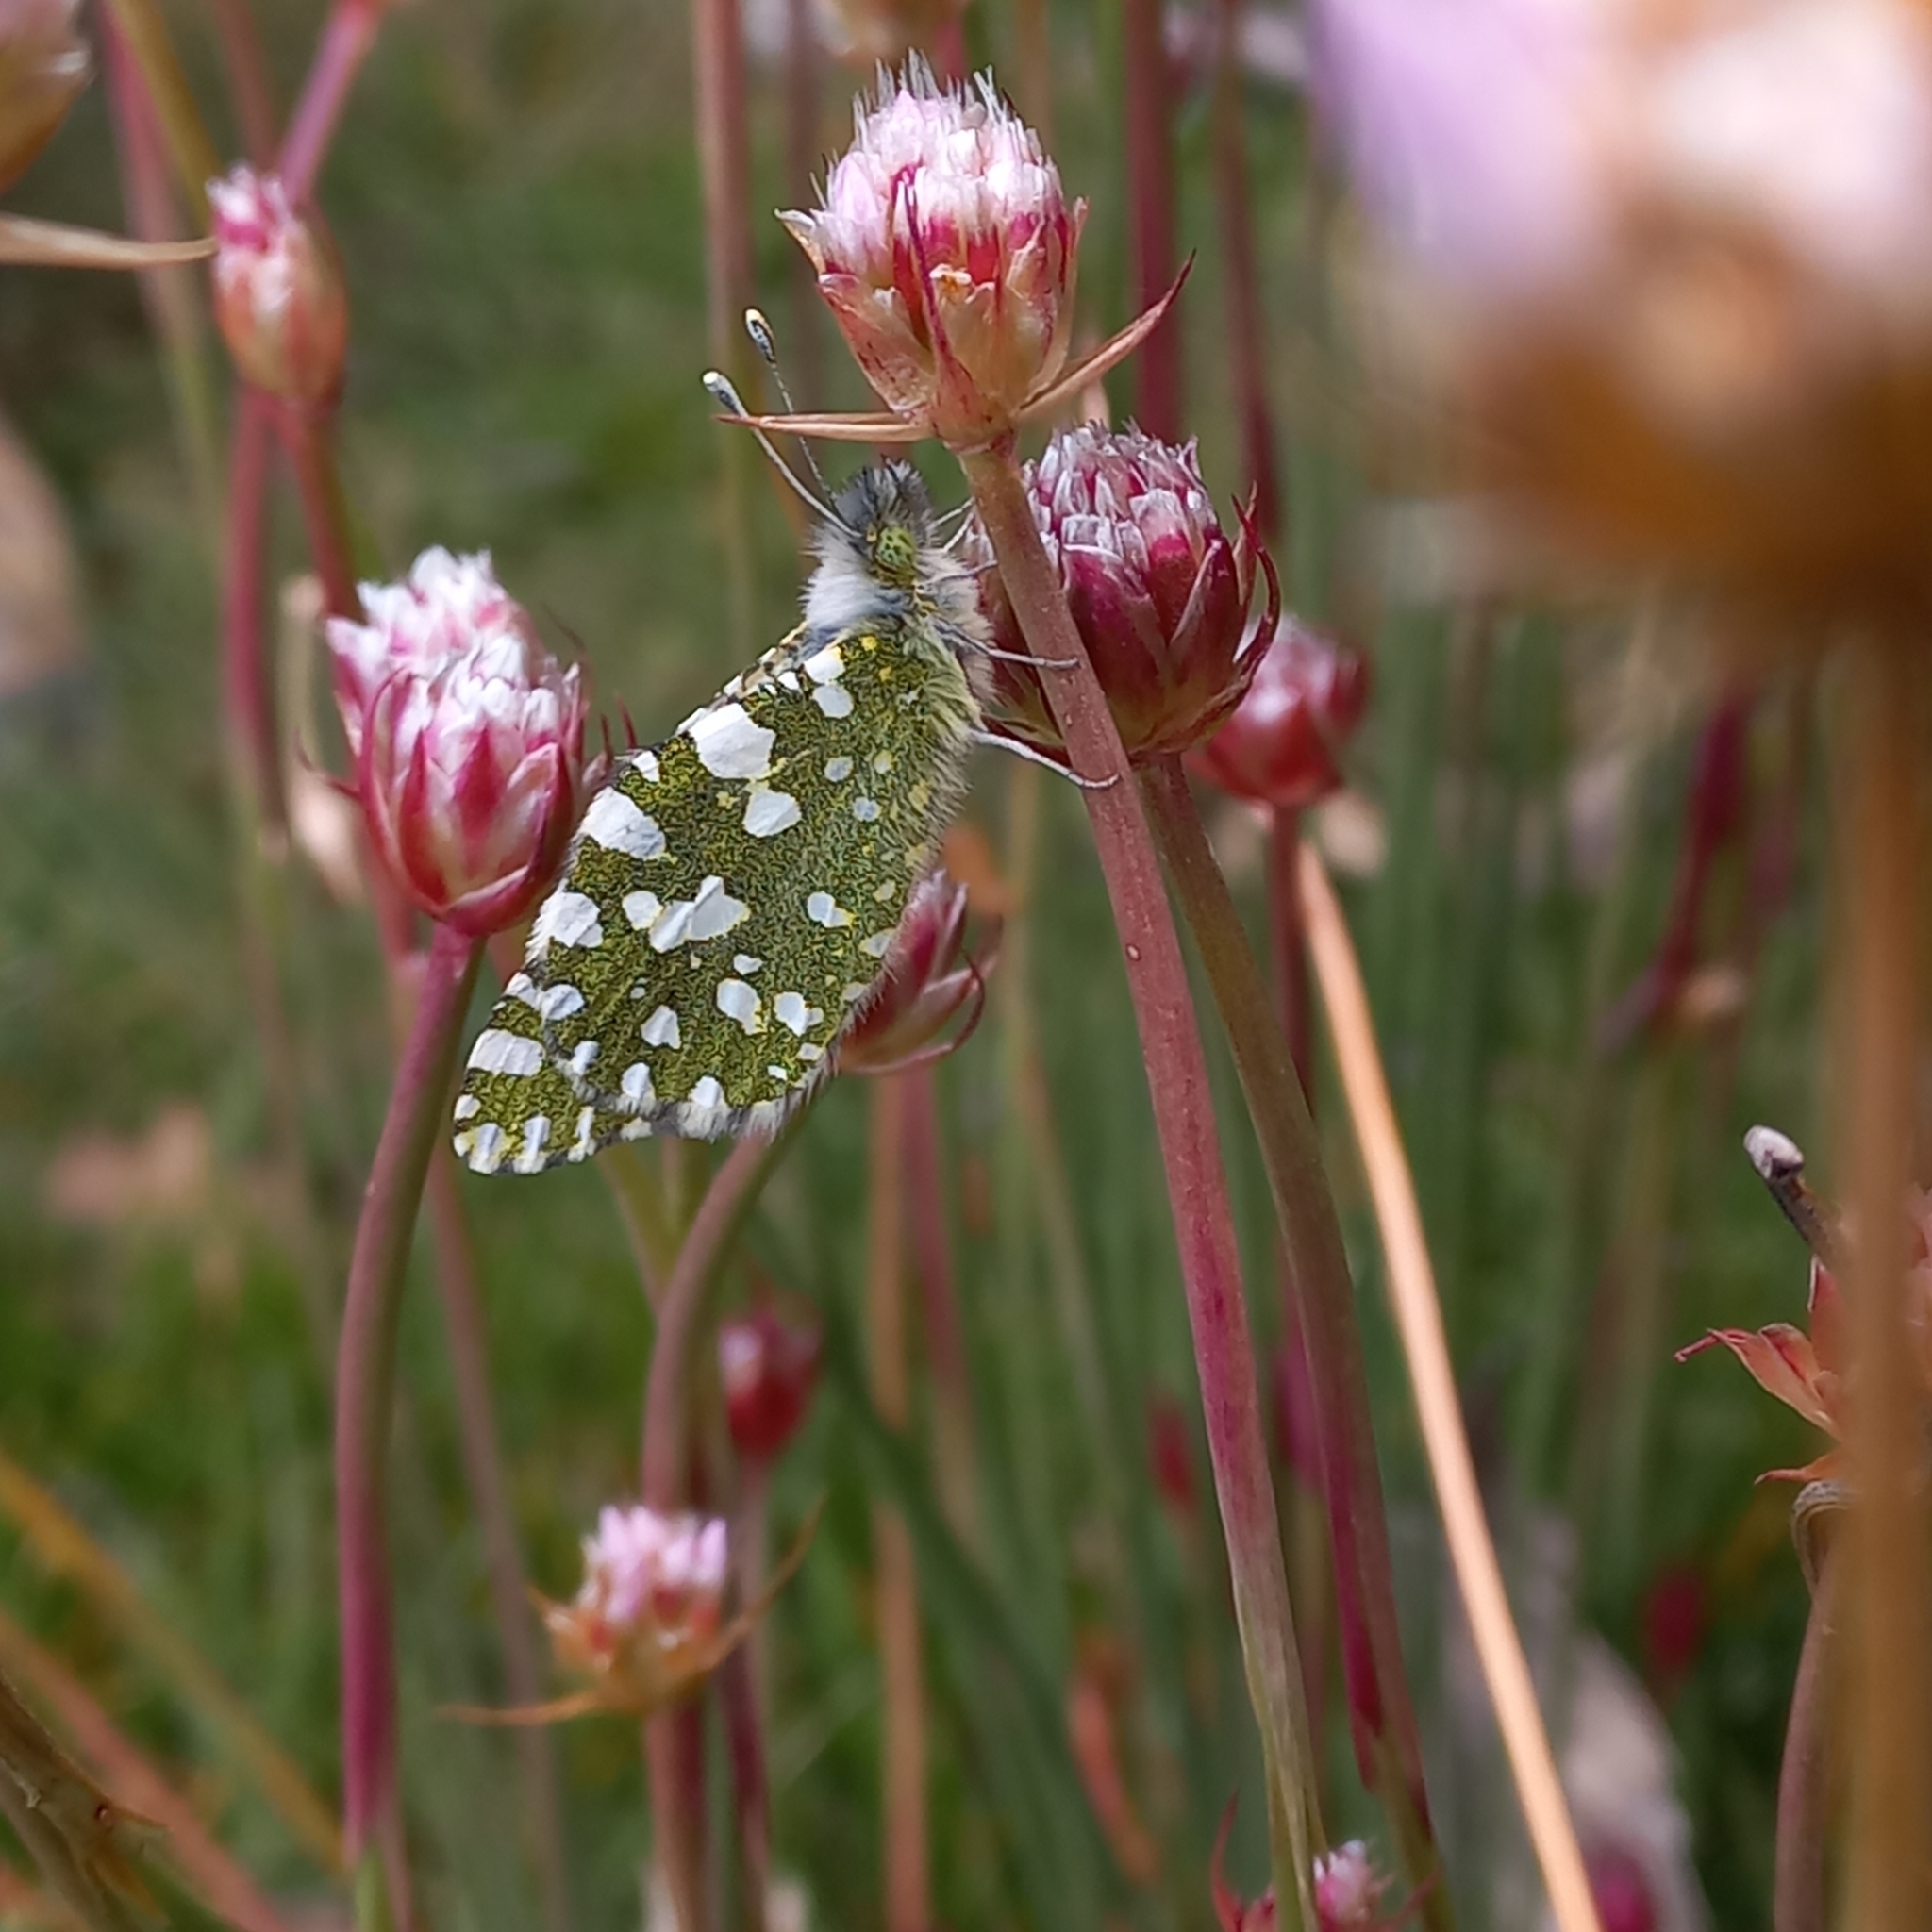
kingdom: Animalia
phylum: Arthropoda
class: Insecta
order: Lepidoptera
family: Pieridae
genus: Euchloe
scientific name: Euchloe crameri
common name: Western dappled white
